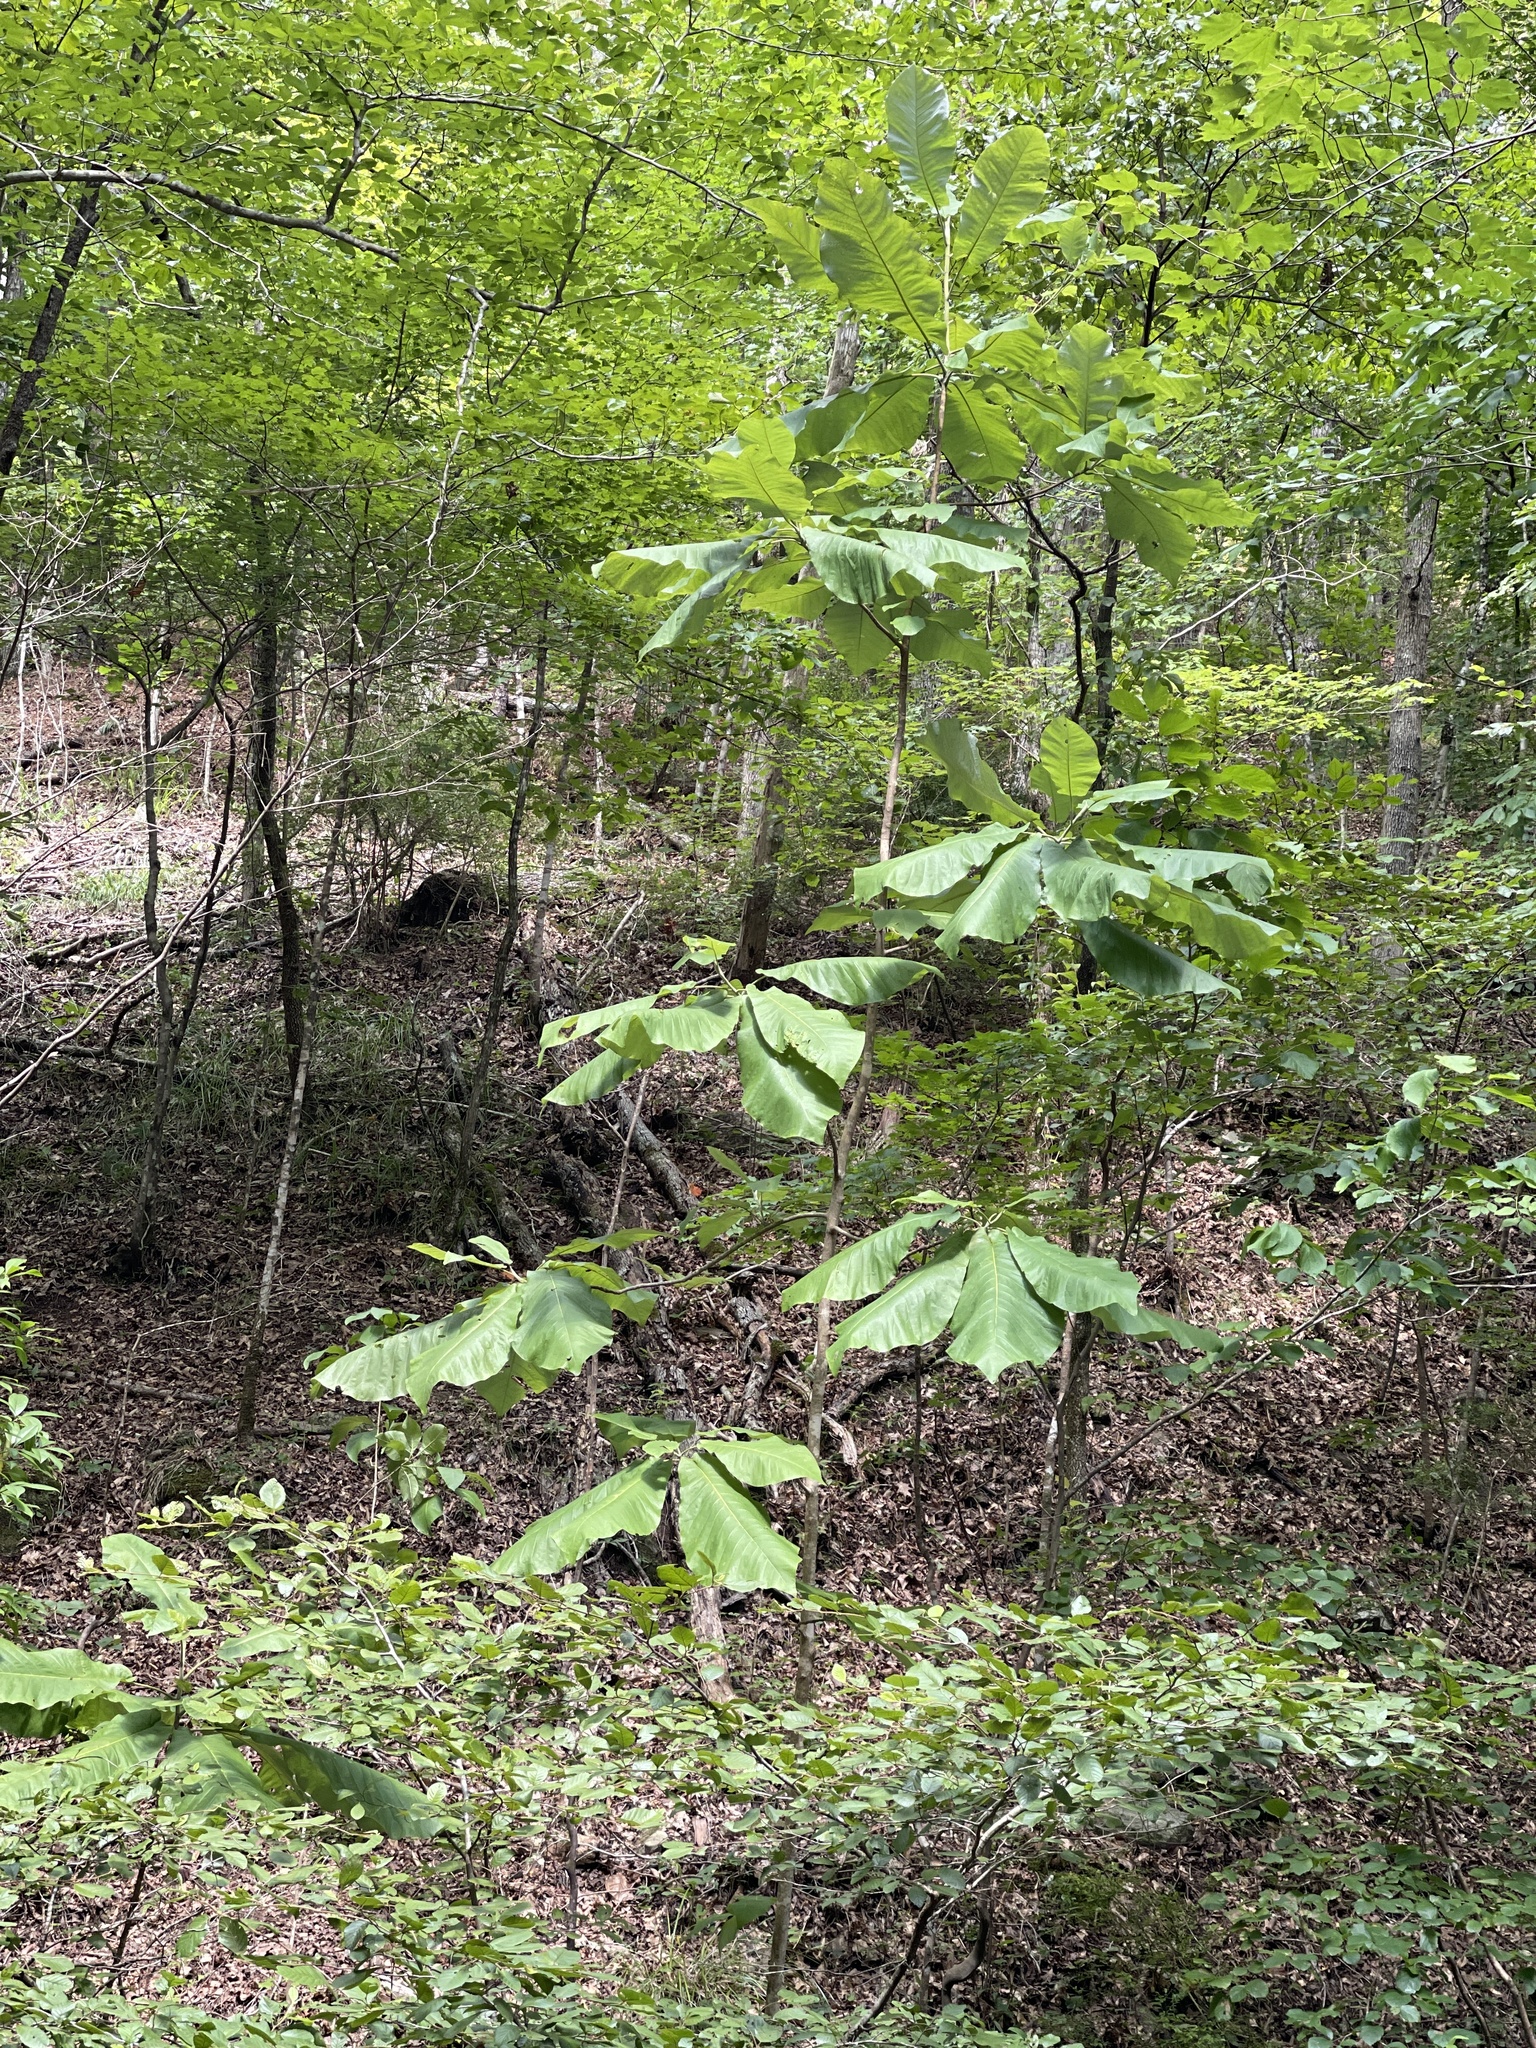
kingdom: Plantae
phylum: Tracheophyta
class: Magnoliopsida
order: Magnoliales
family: Magnoliaceae
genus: Magnolia
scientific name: Magnolia macrophylla
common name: Big-leaf magnolia
